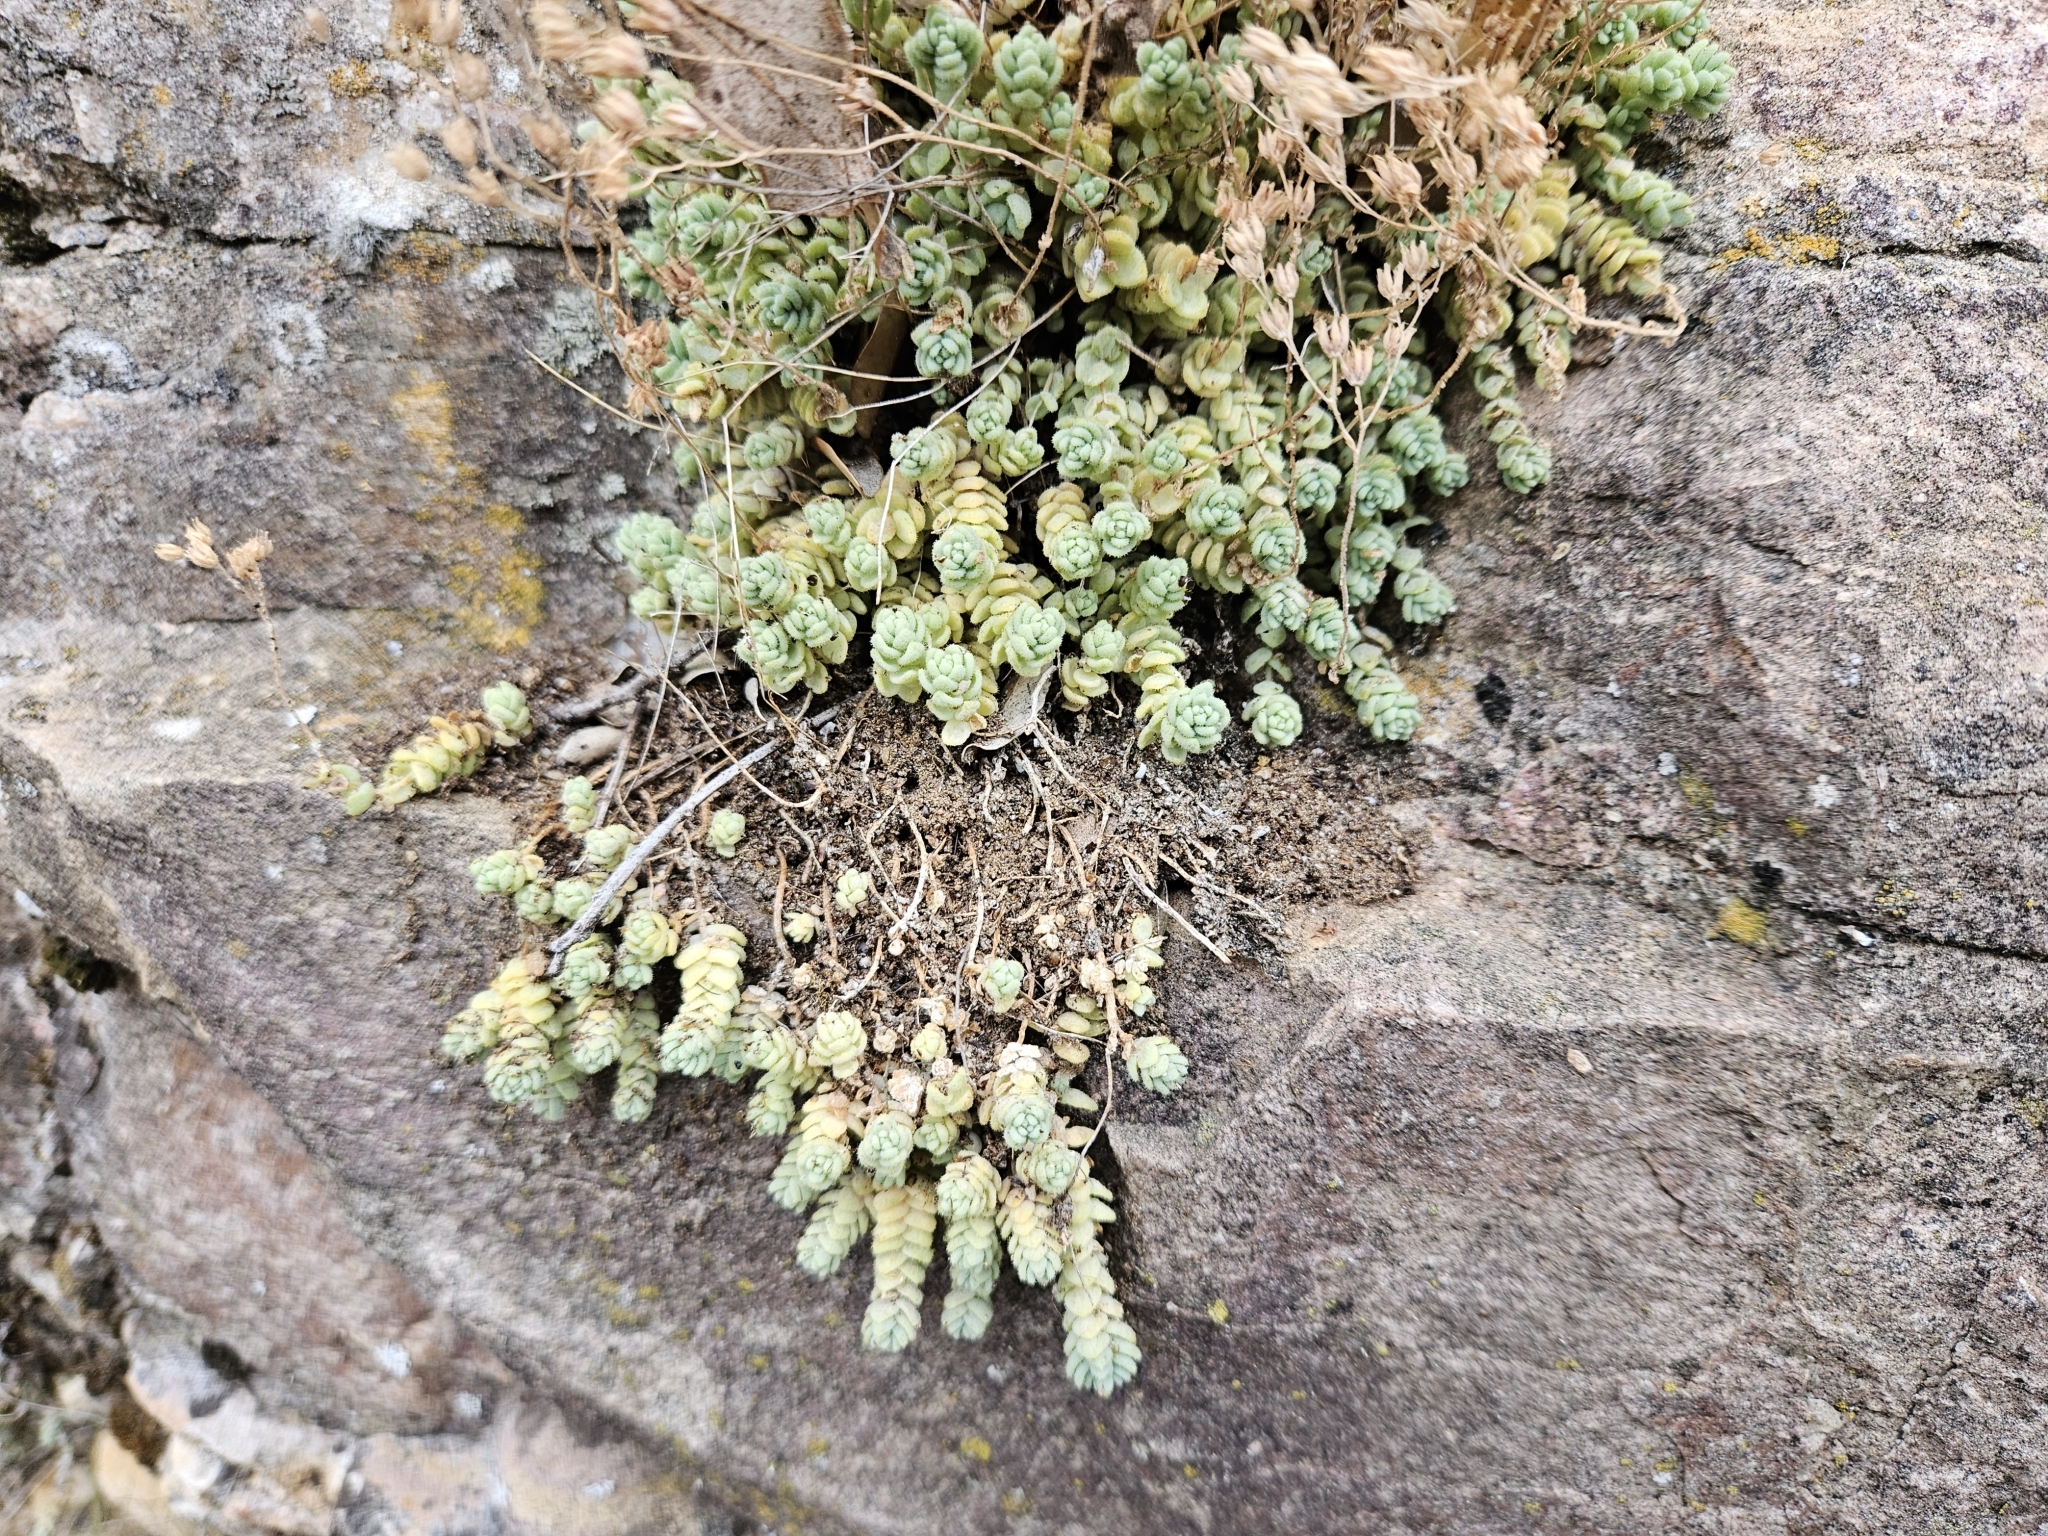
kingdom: Plantae
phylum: Tracheophyta
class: Magnoliopsida
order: Saxifragales
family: Crassulaceae
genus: Sedum
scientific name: Sedum dasyphyllum
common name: Thick-leaf stonecrop
